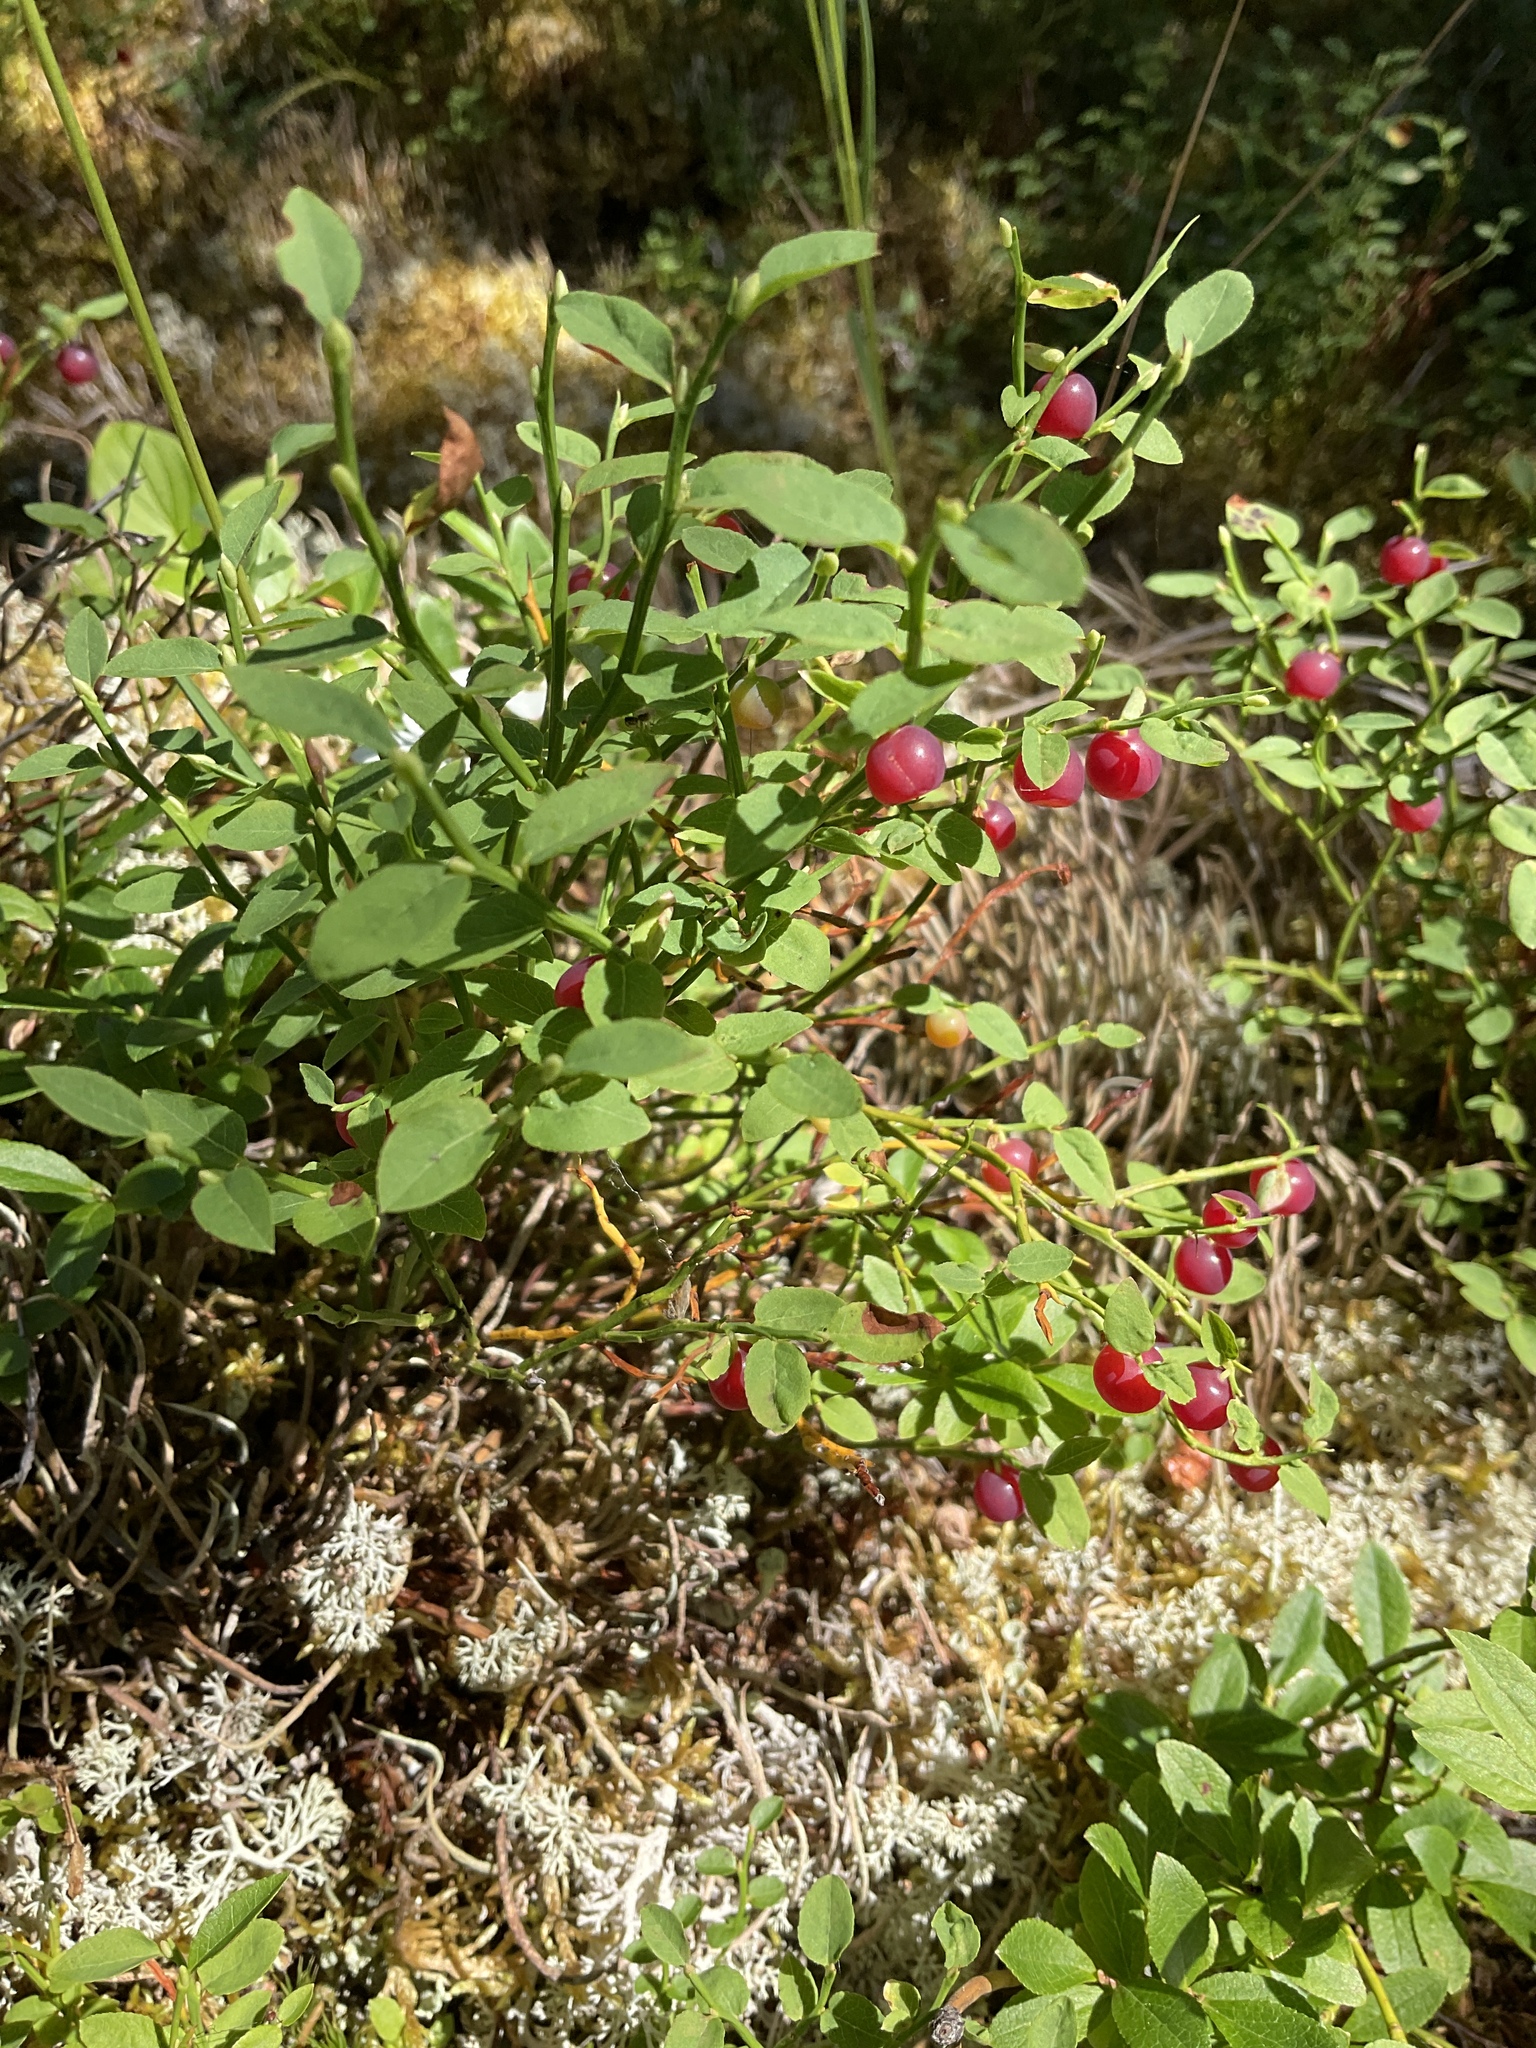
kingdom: Plantae
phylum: Tracheophyta
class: Magnoliopsida
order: Ericales
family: Ericaceae
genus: Vaccinium
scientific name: Vaccinium scoparium
